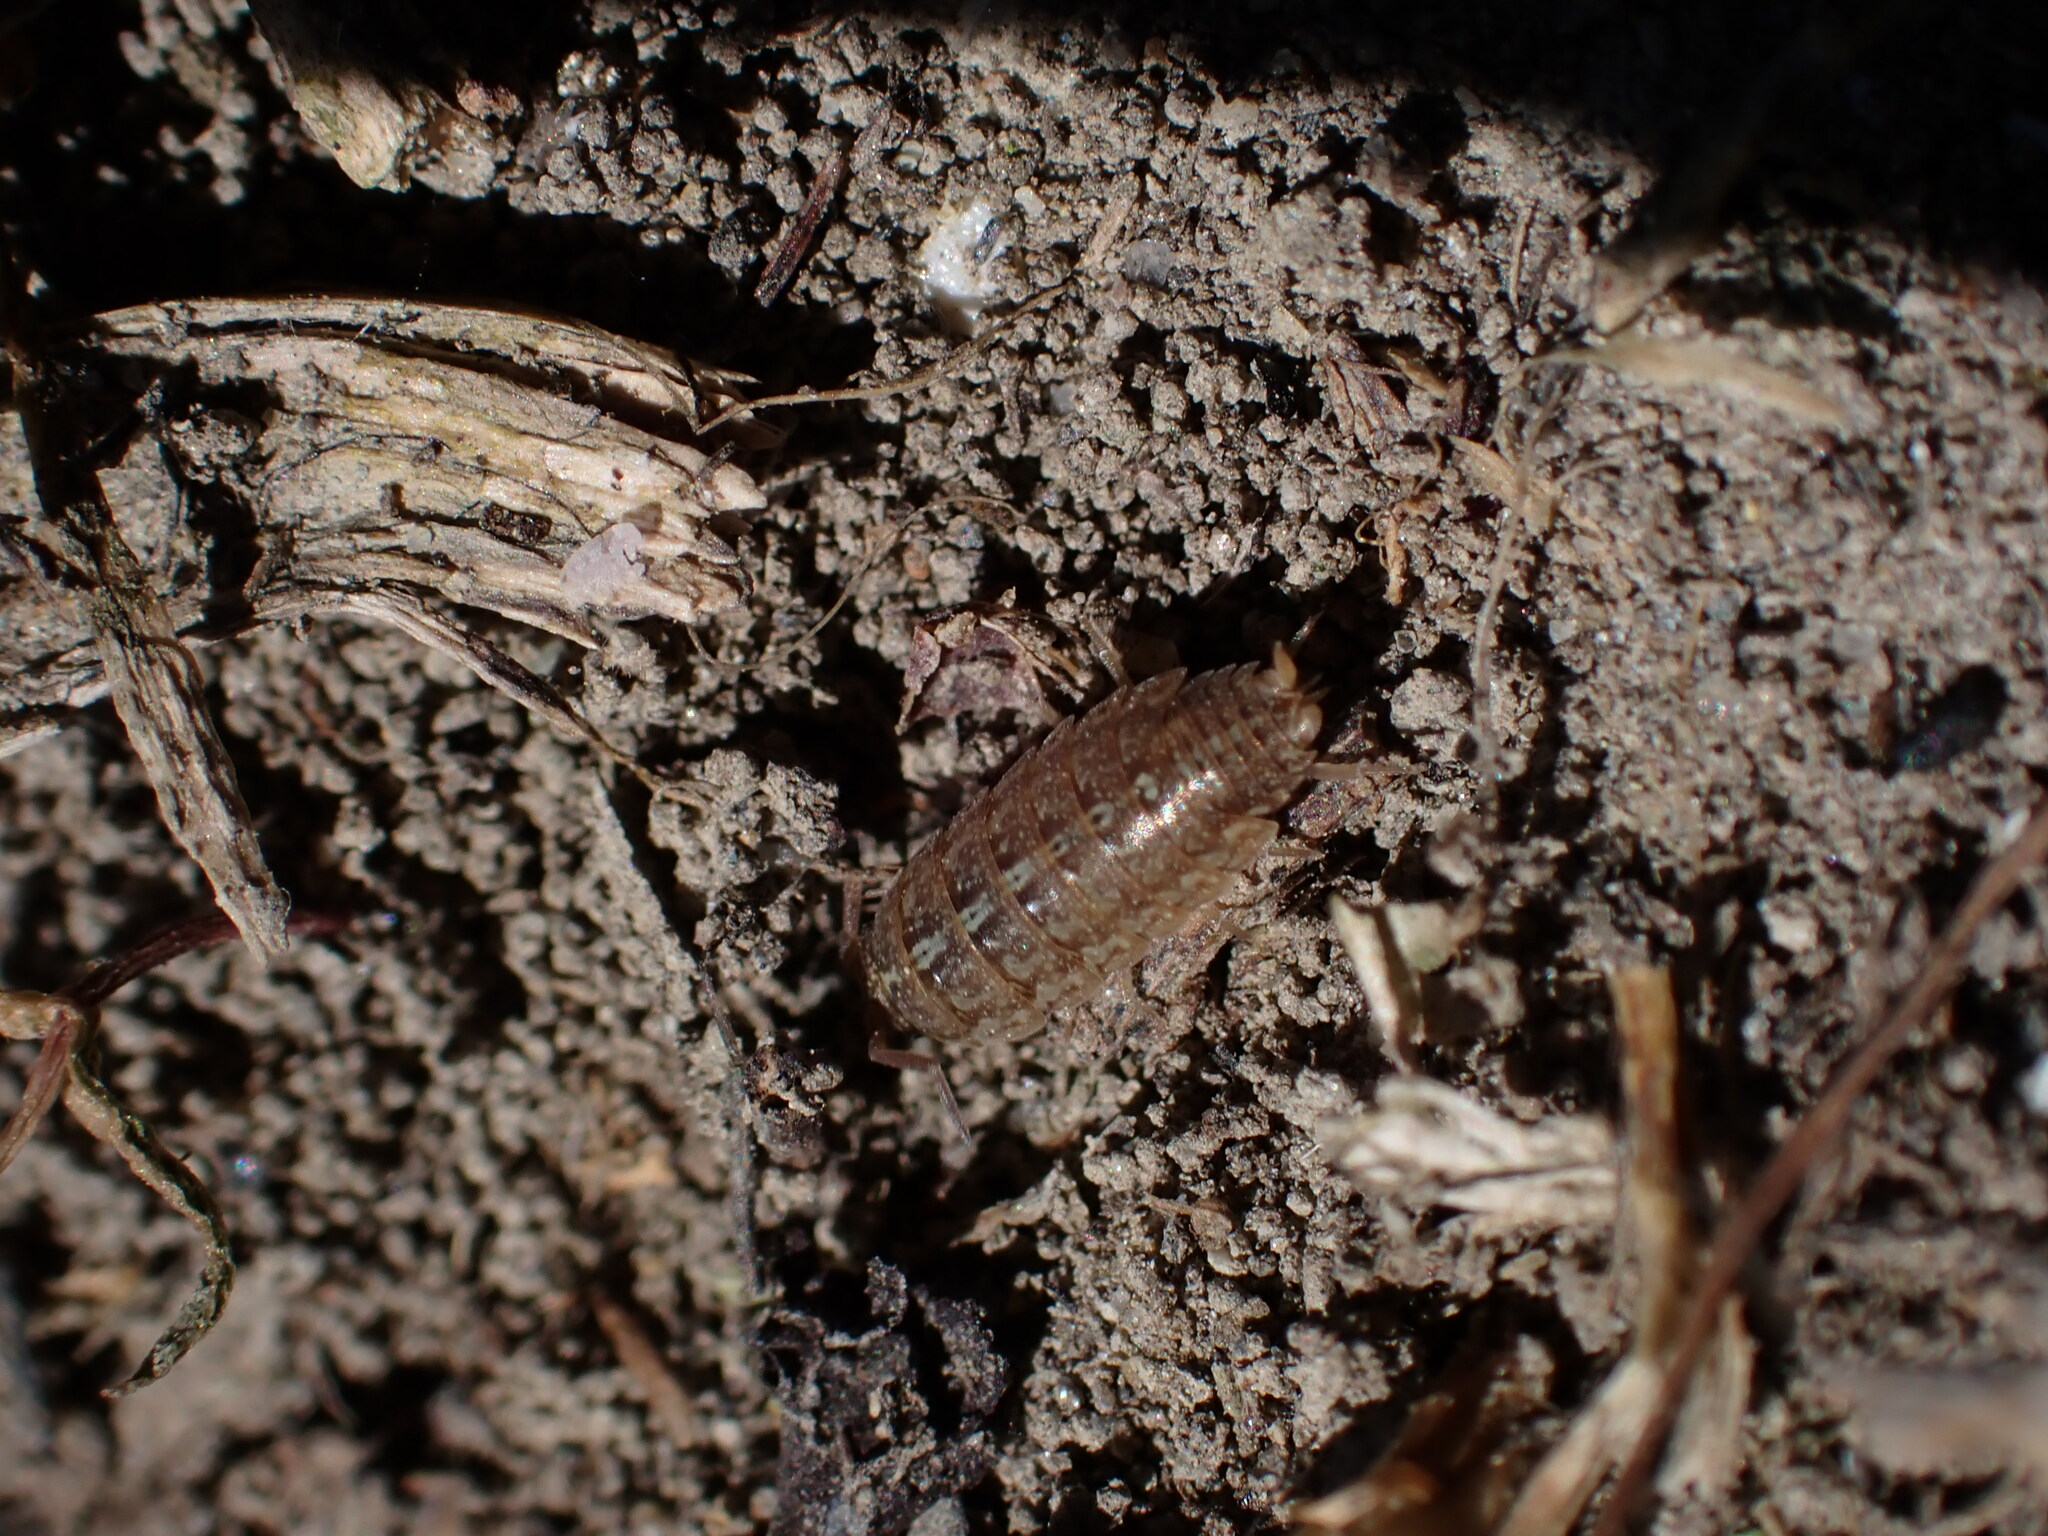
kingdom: Animalia
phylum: Arthropoda
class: Malacostraca
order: Isopoda
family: Porcellionidae
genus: Acaeroplastes
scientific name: Acaeroplastes melanurus
